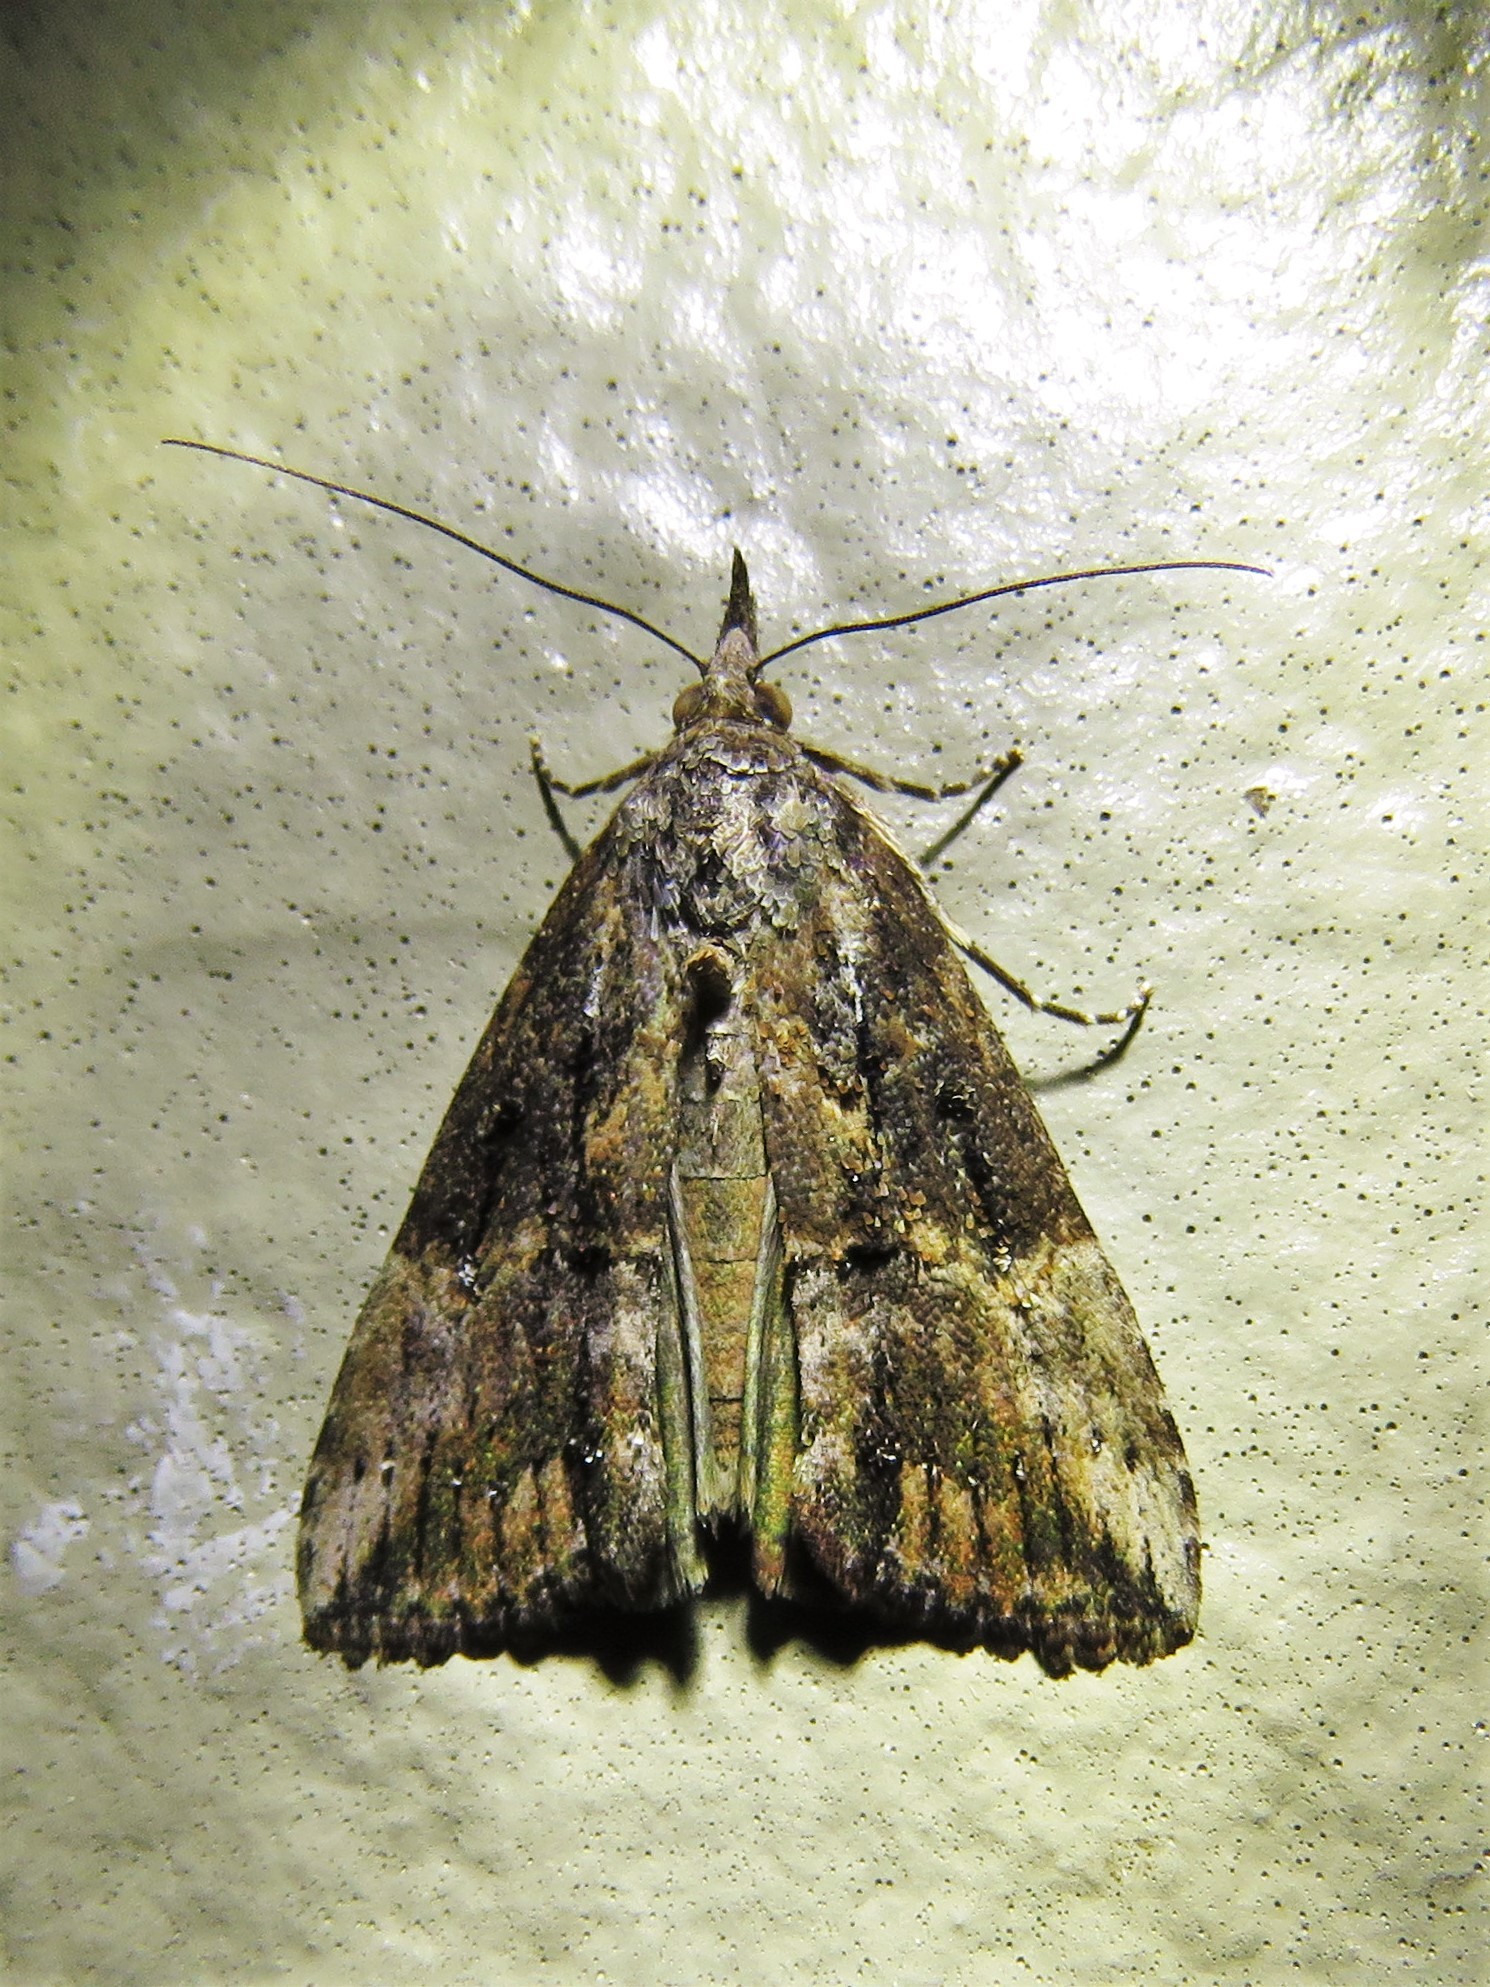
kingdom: Animalia
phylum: Arthropoda
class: Insecta
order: Lepidoptera
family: Erebidae
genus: Hypena
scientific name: Hypena scabra
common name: Green cloverworm
